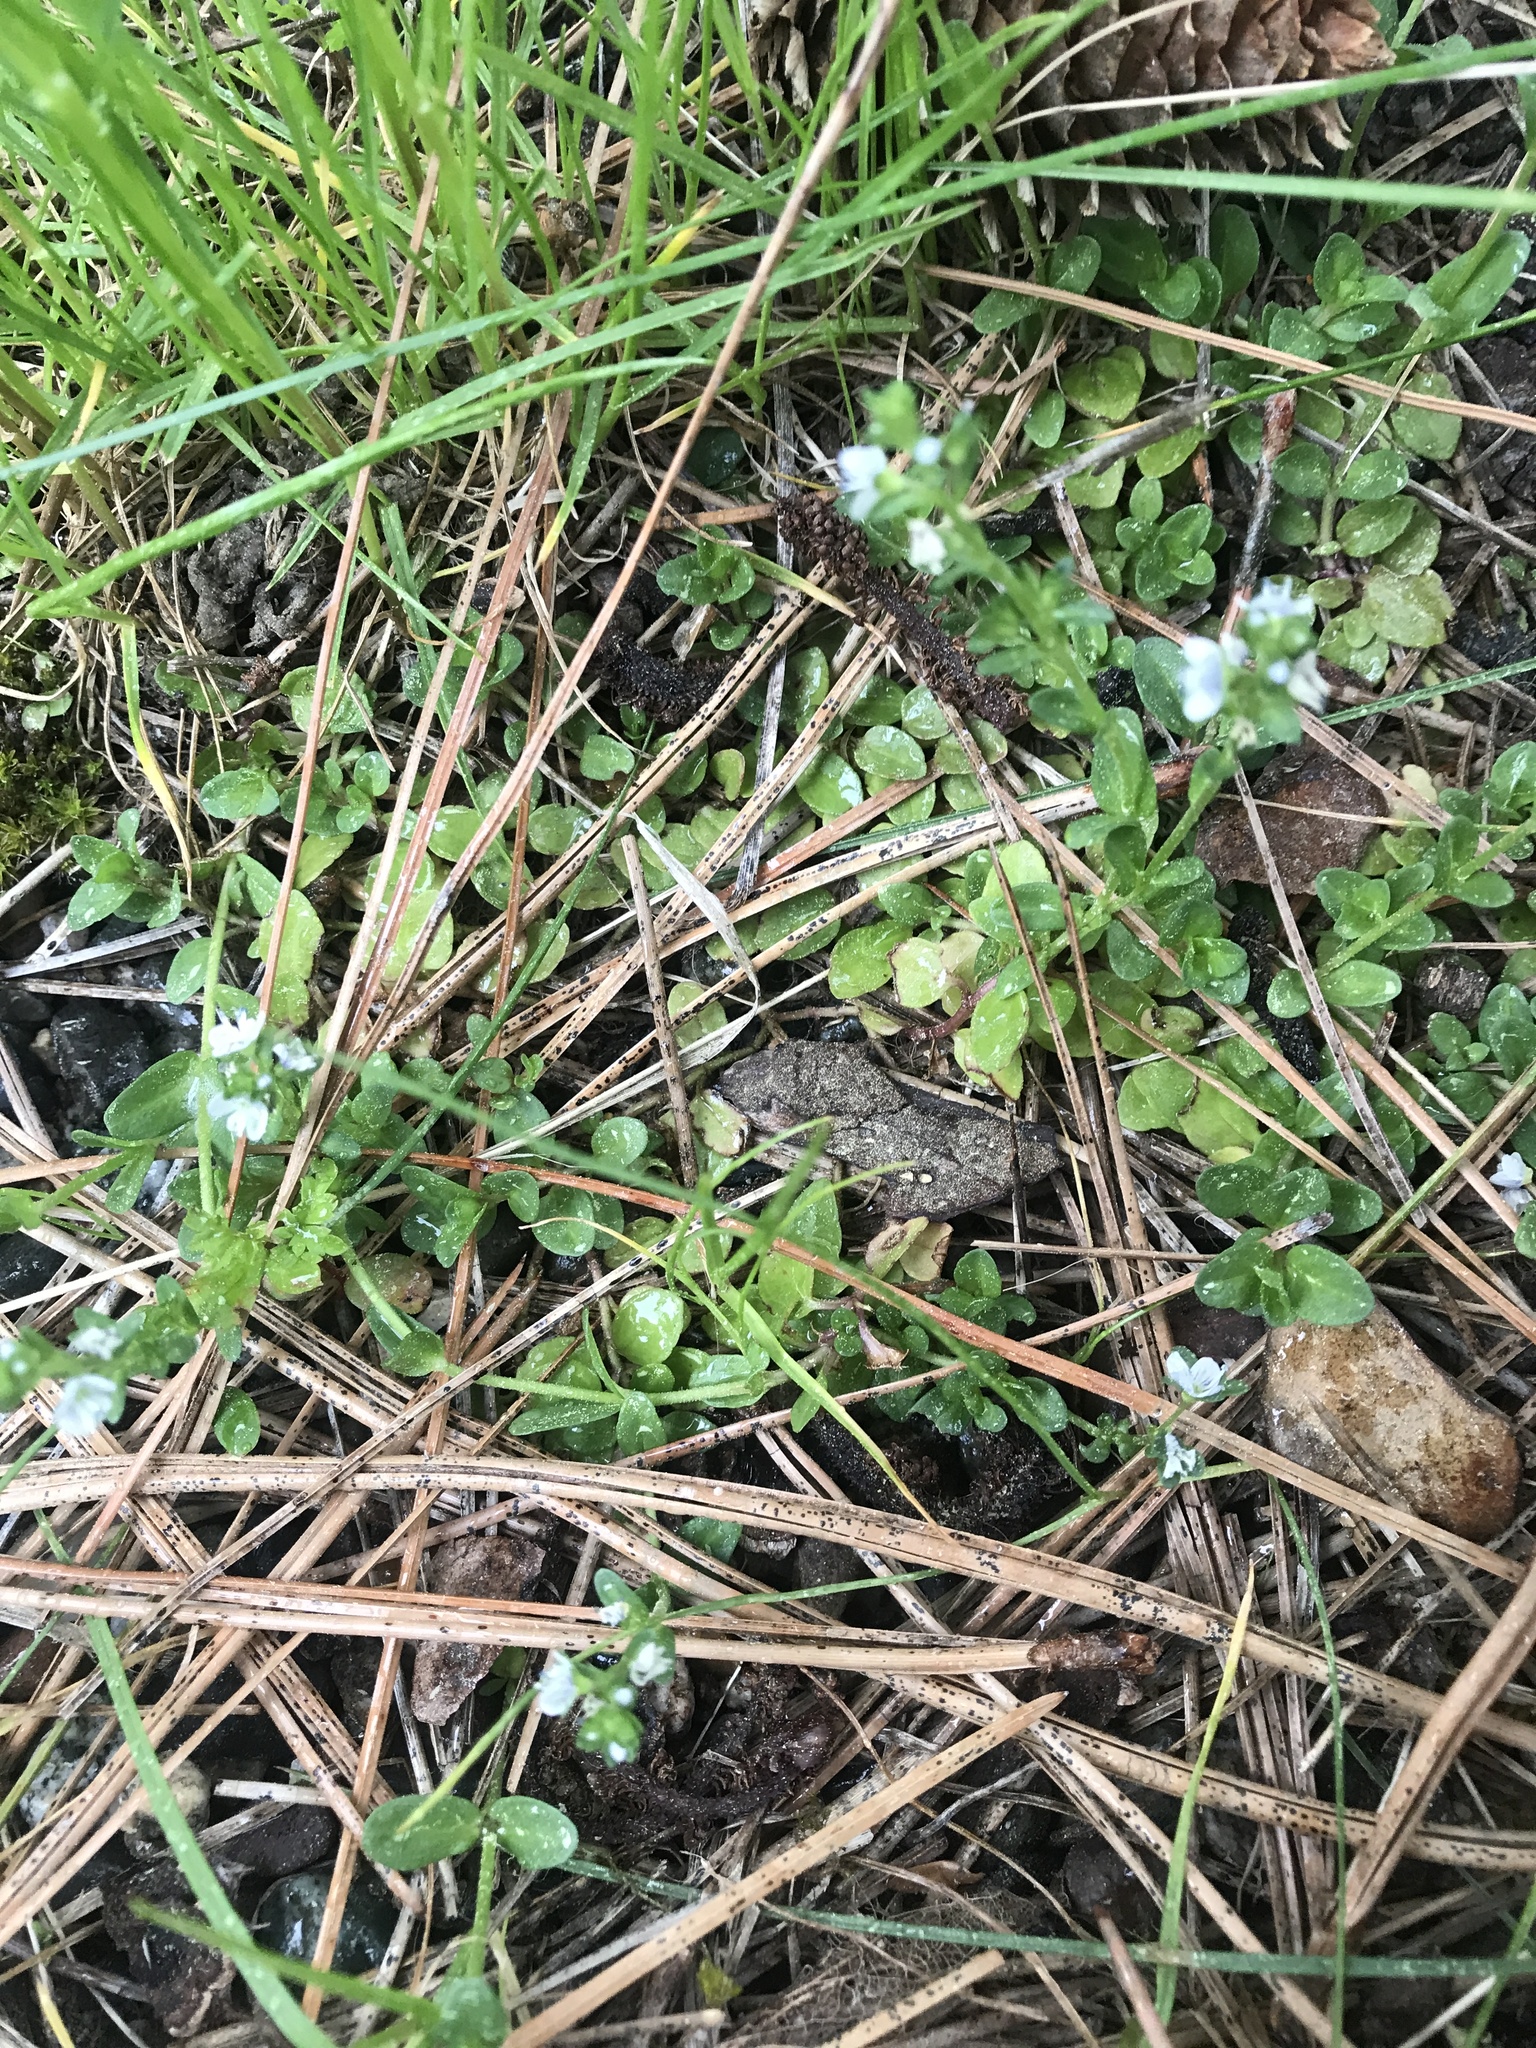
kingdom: Plantae
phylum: Tracheophyta
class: Magnoliopsida
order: Lamiales
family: Plantaginaceae
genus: Veronica
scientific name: Veronica serpyllifolia
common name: Thyme-leaved speedwell
